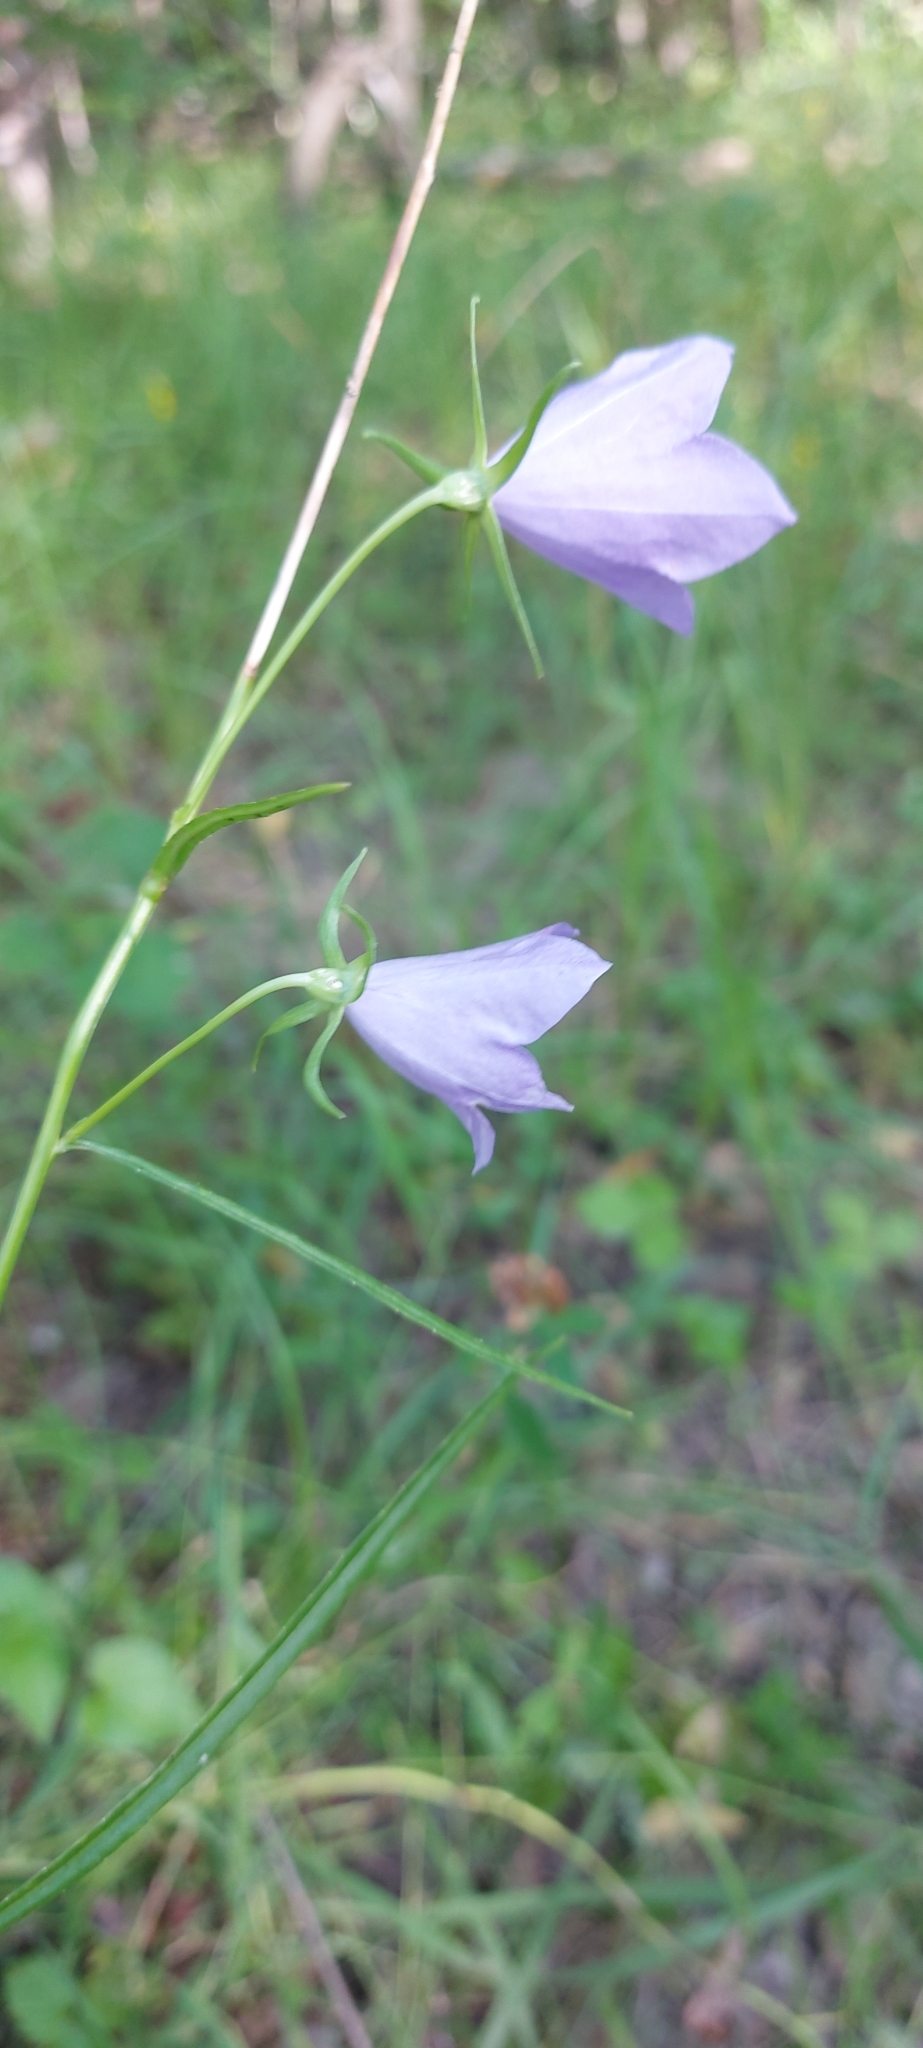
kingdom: Plantae
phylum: Tracheophyta
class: Magnoliopsida
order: Asterales
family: Campanulaceae
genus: Campanula
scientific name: Campanula persicifolia
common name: Peach-leaved bellflower
